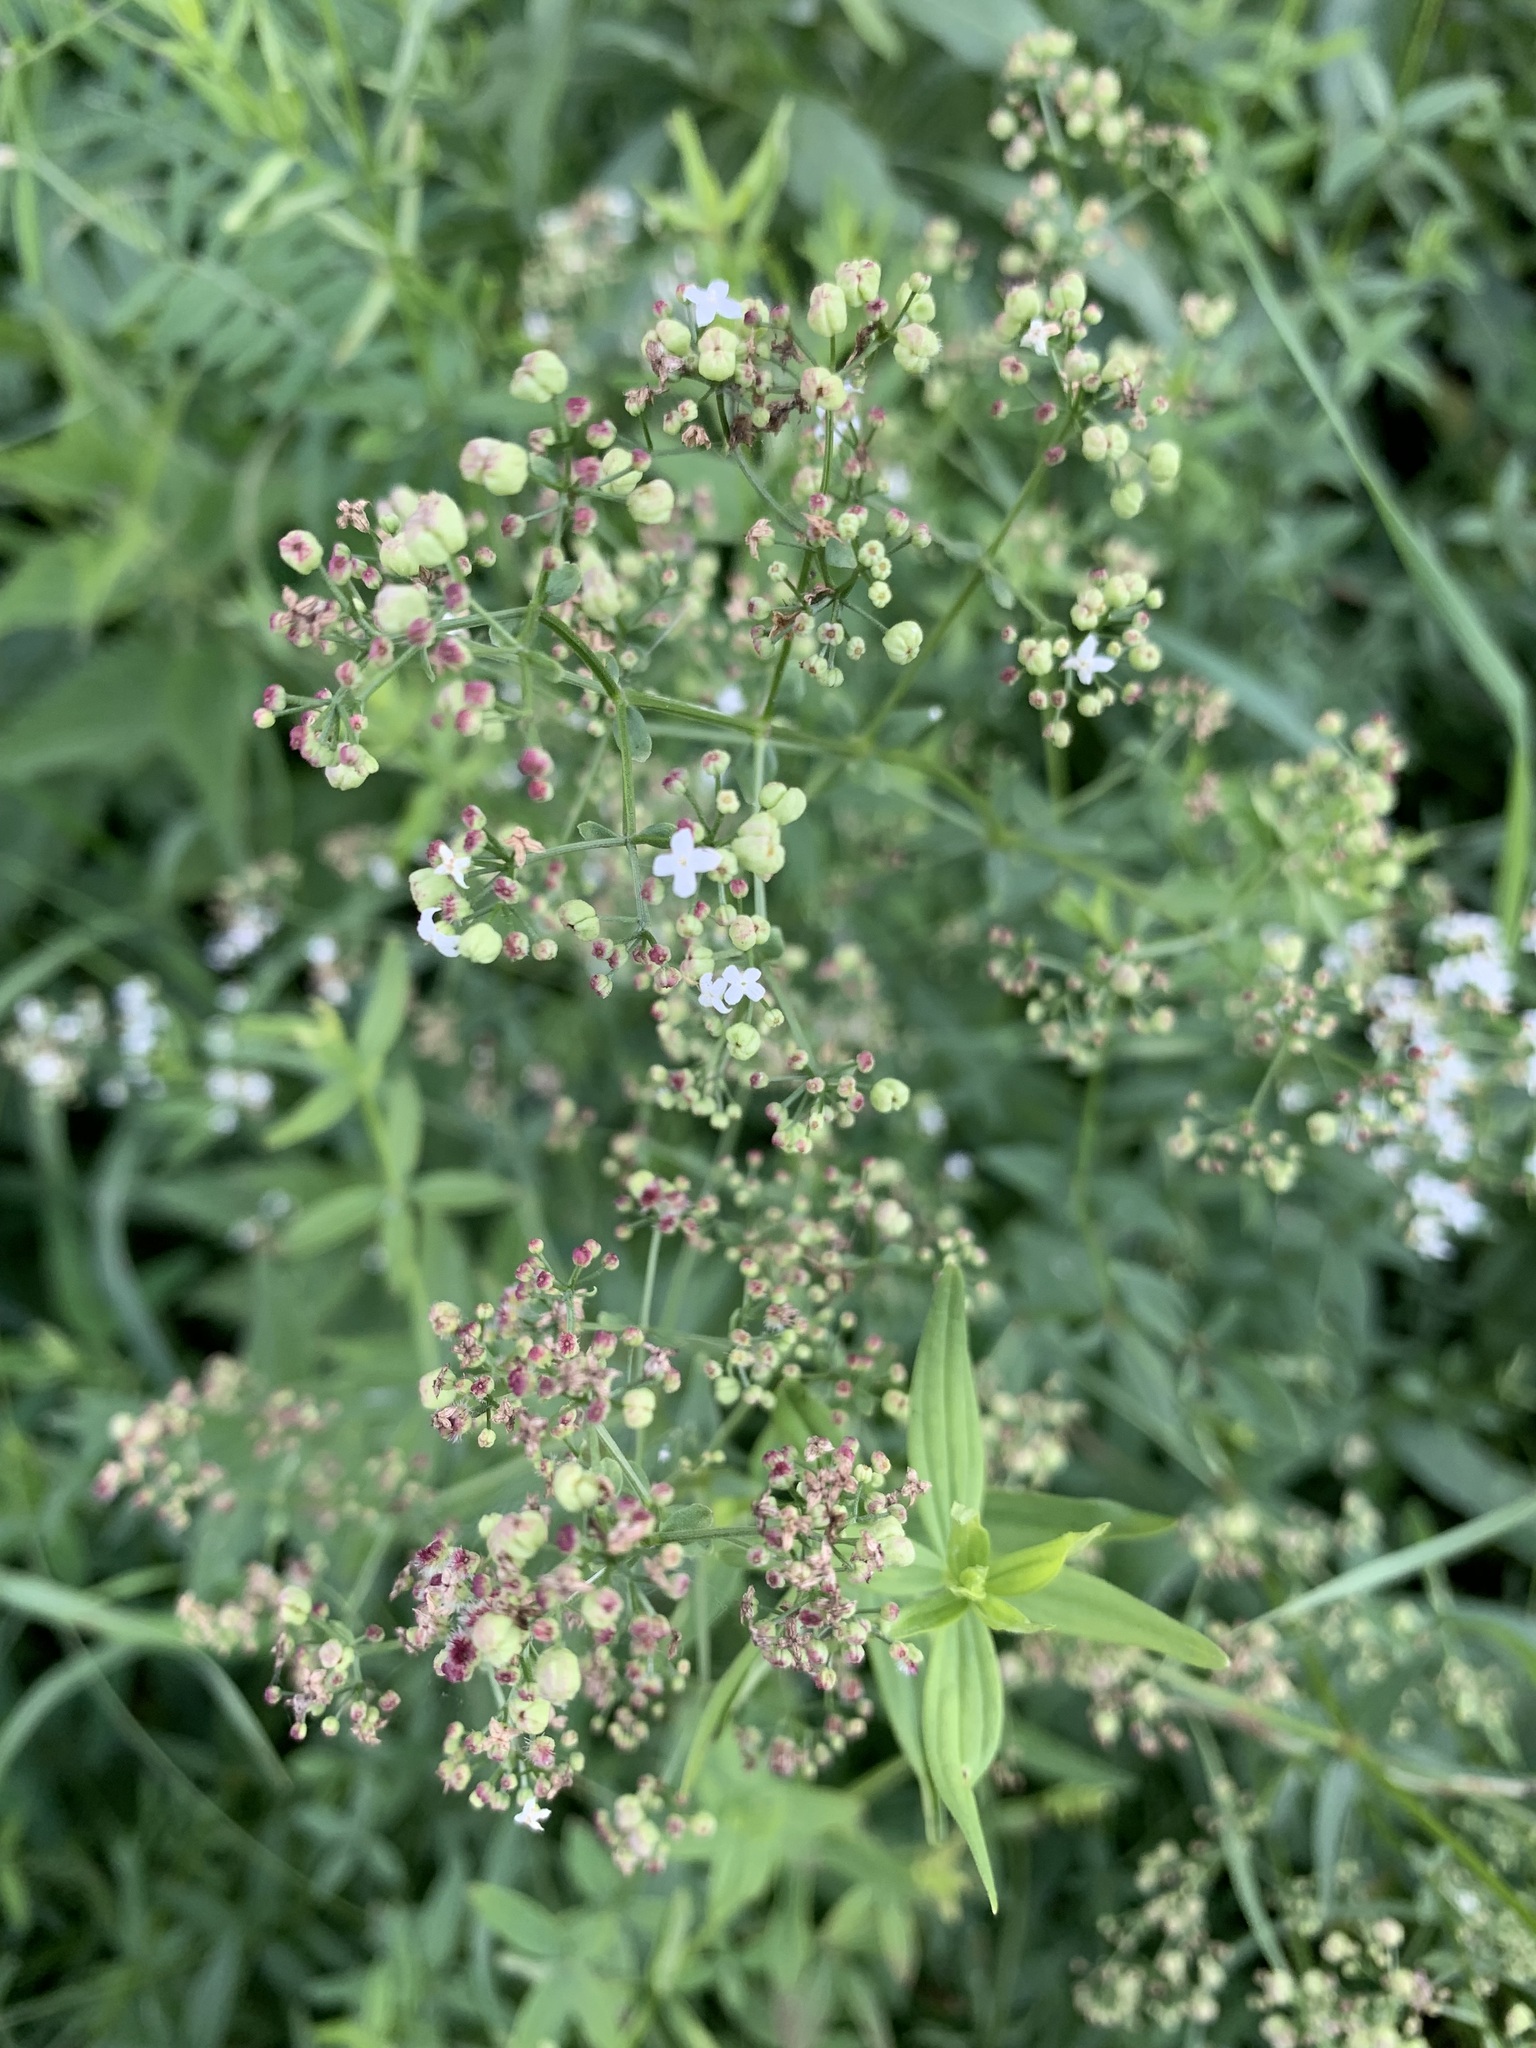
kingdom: Plantae
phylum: Tracheophyta
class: Magnoliopsida
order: Gentianales
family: Rubiaceae
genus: Galium
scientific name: Galium rubioides
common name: European bedstraw
